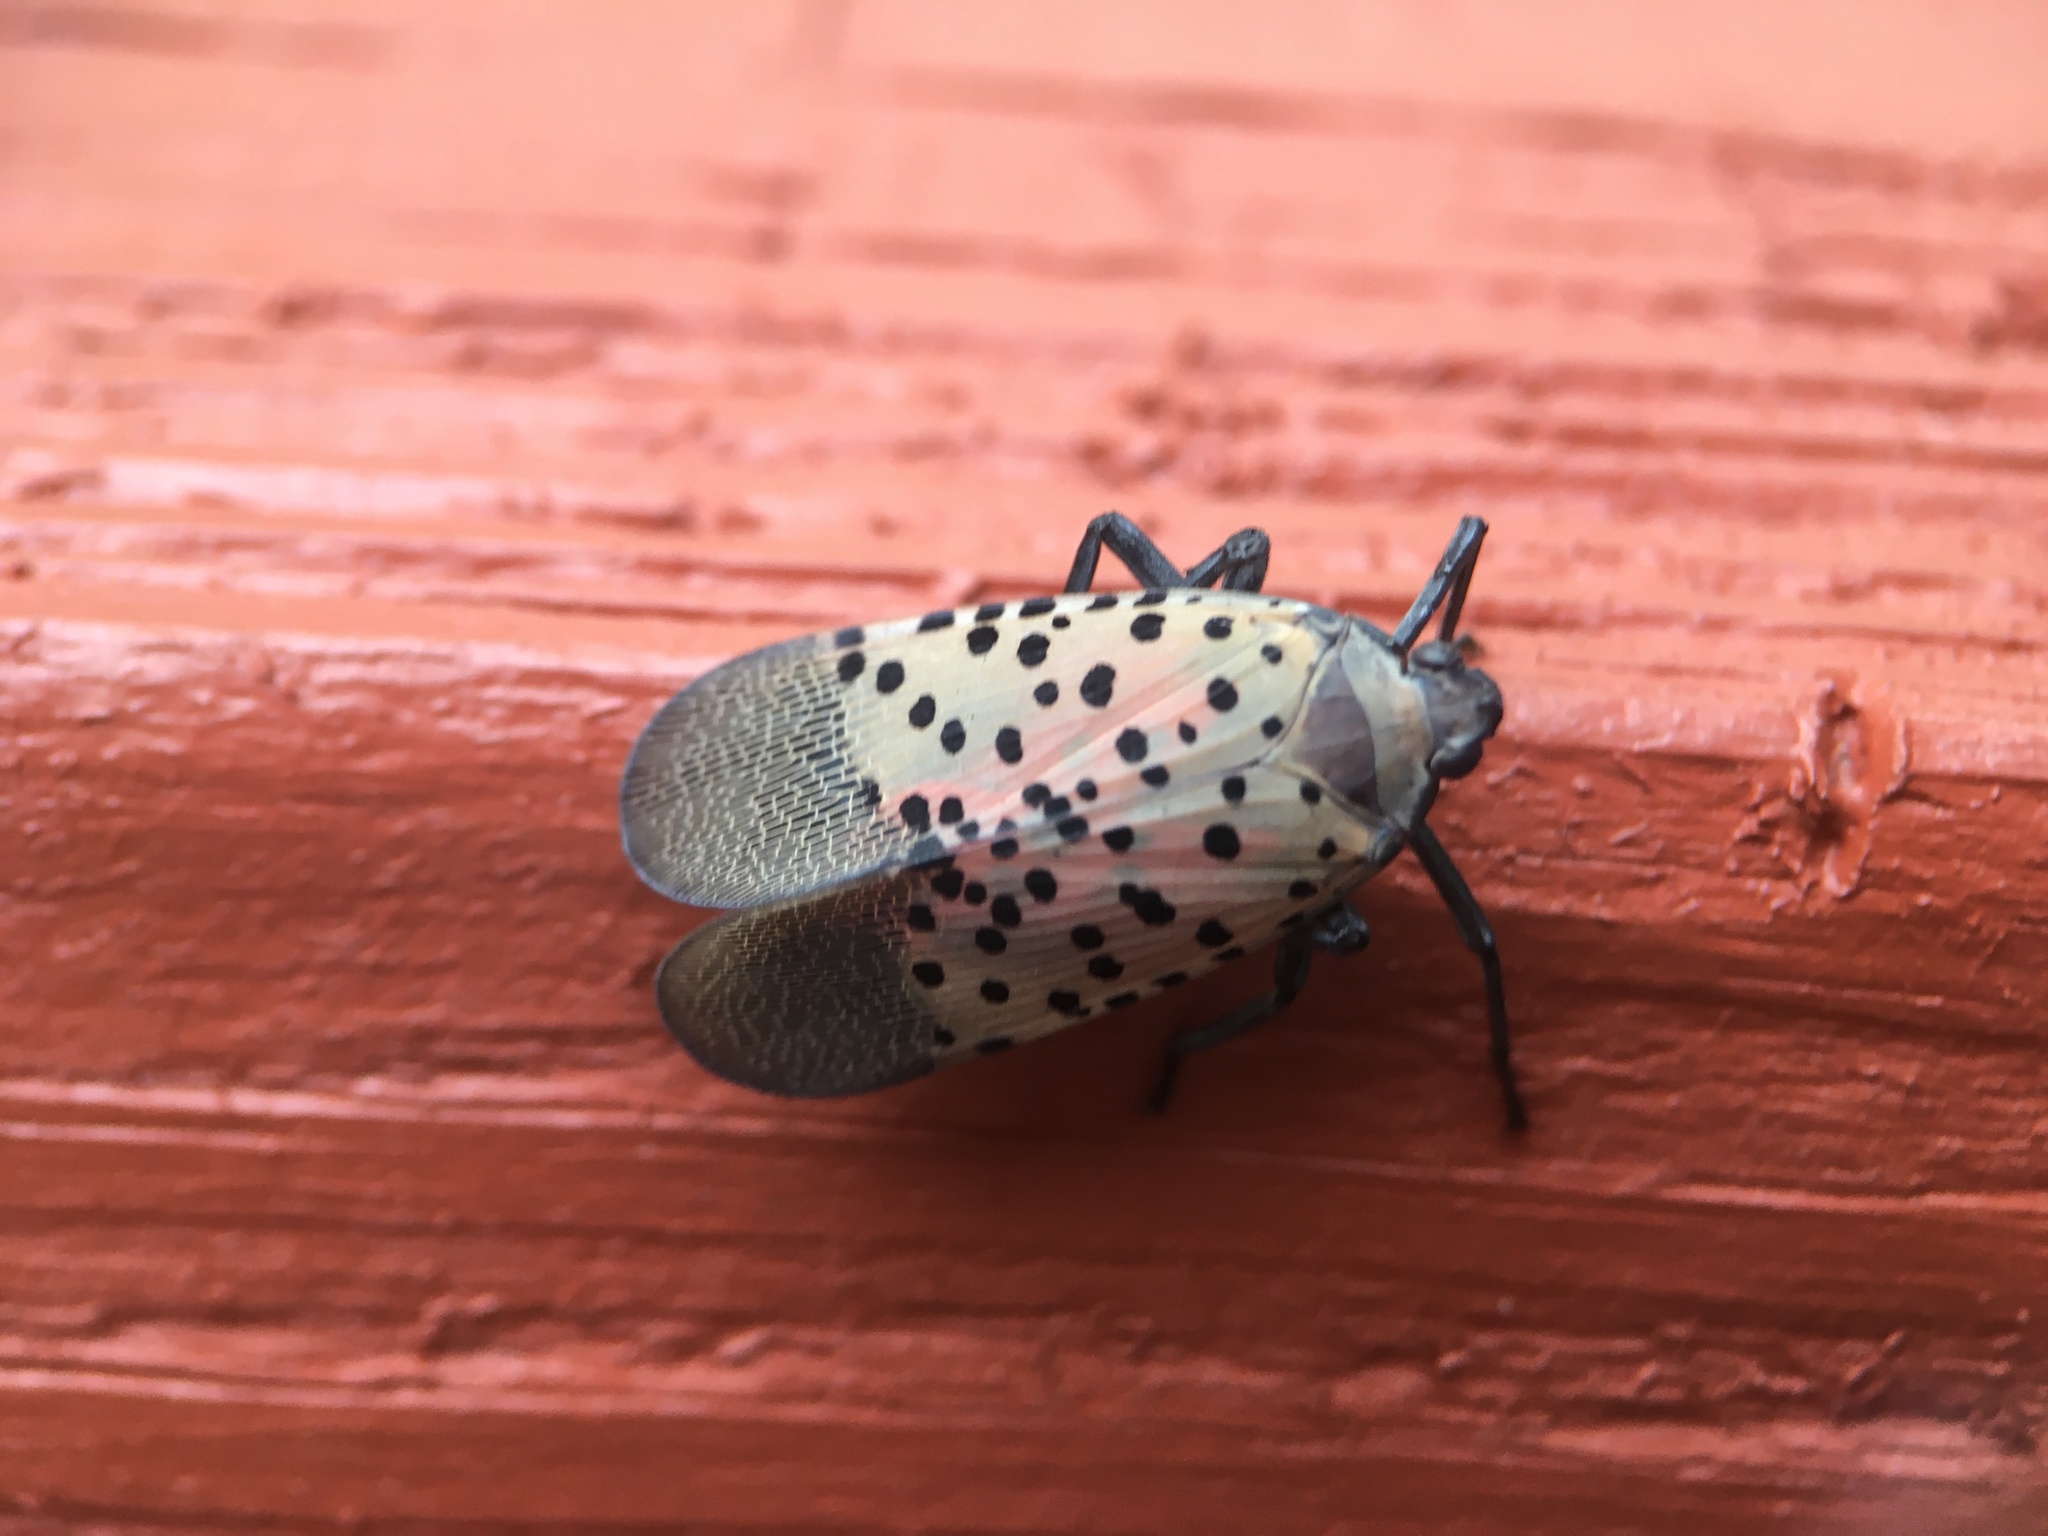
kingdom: Animalia
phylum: Arthropoda
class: Insecta
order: Hemiptera
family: Fulgoridae
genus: Lycorma
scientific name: Lycorma delicatula
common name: Spotted lanternfly
